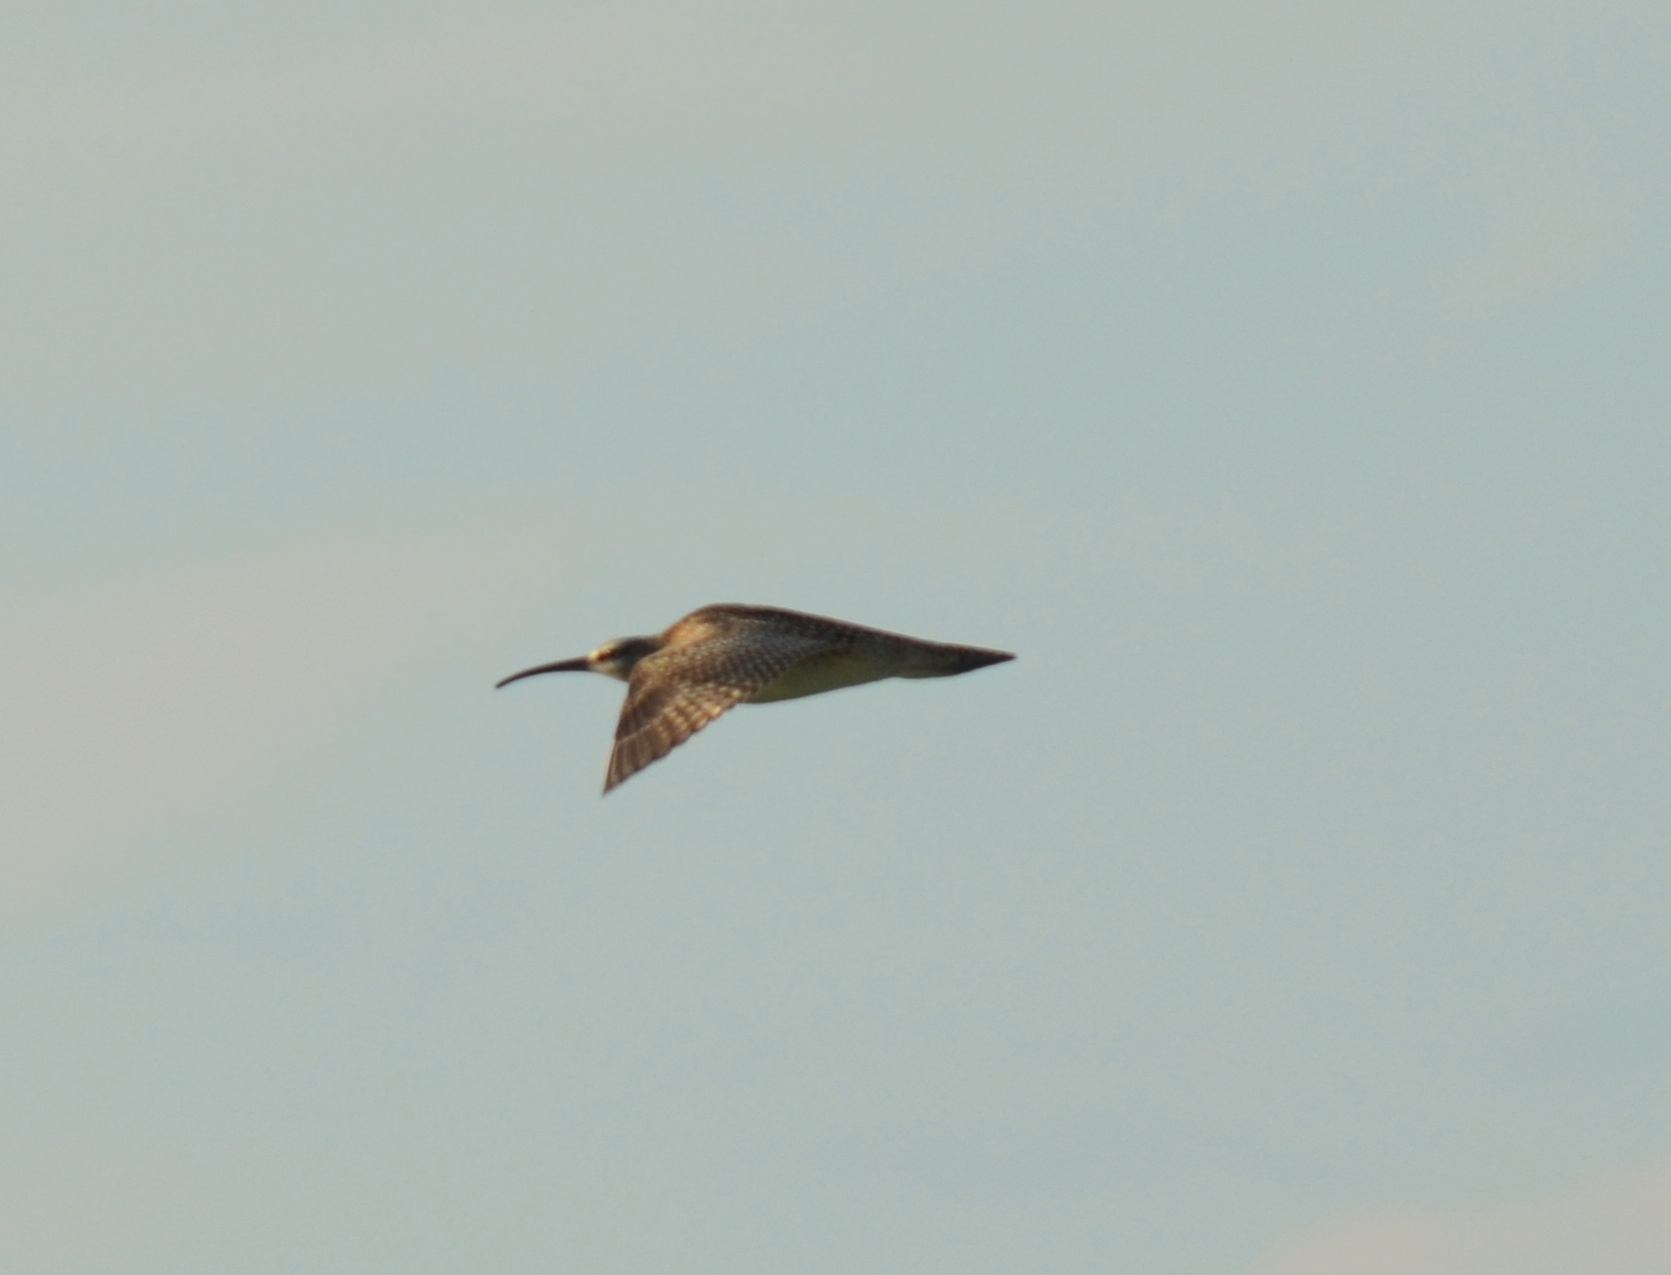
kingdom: Animalia
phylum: Chordata
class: Aves
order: Charadriiformes
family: Scolopacidae
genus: Numenius
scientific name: Numenius phaeopus
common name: Whimbrel
